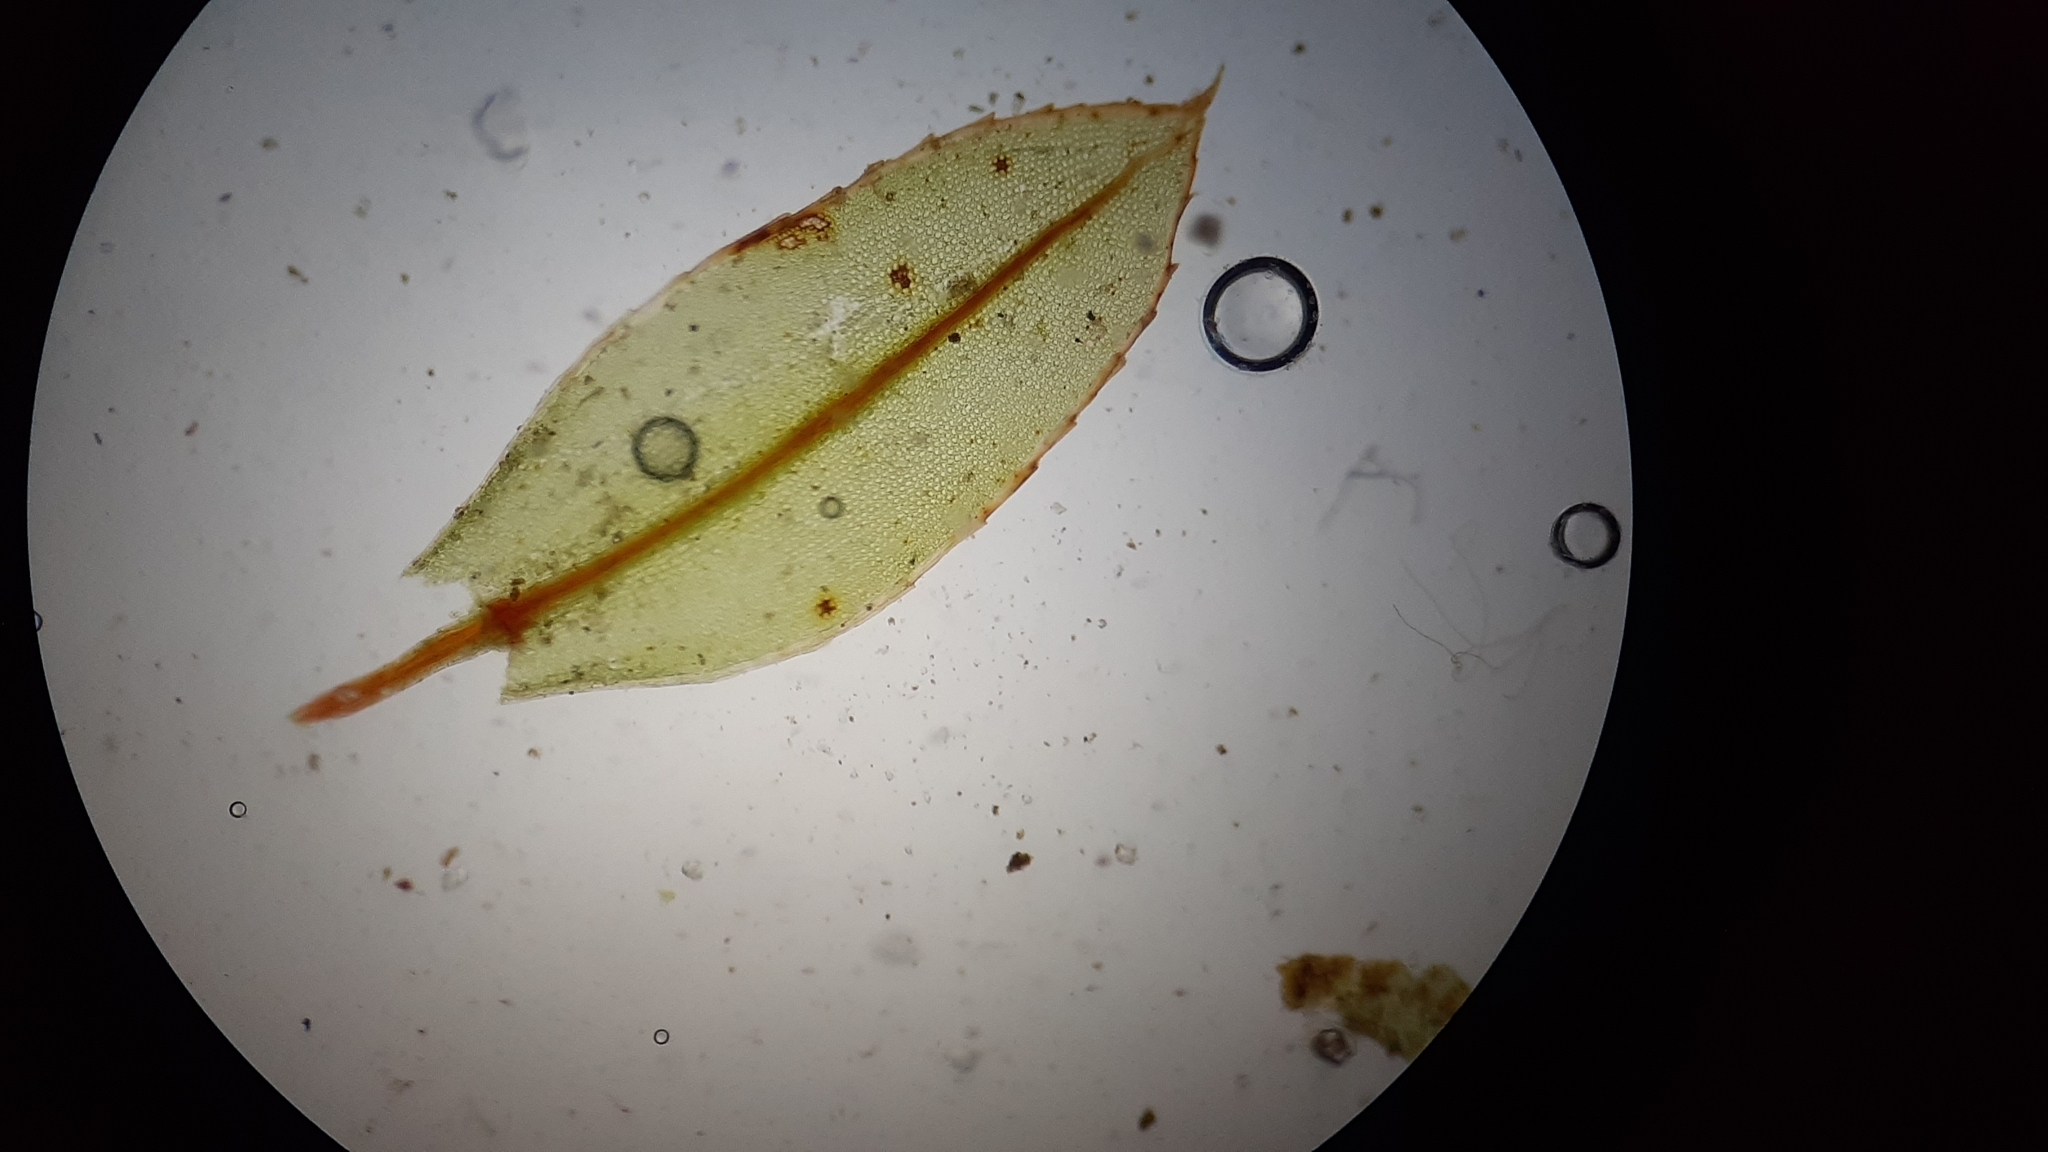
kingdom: Plantae
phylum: Bryophyta
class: Bryopsida
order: Bryales
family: Mniaceae
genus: Mnium
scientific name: Mnium marginatum
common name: Bordered leafy moss
